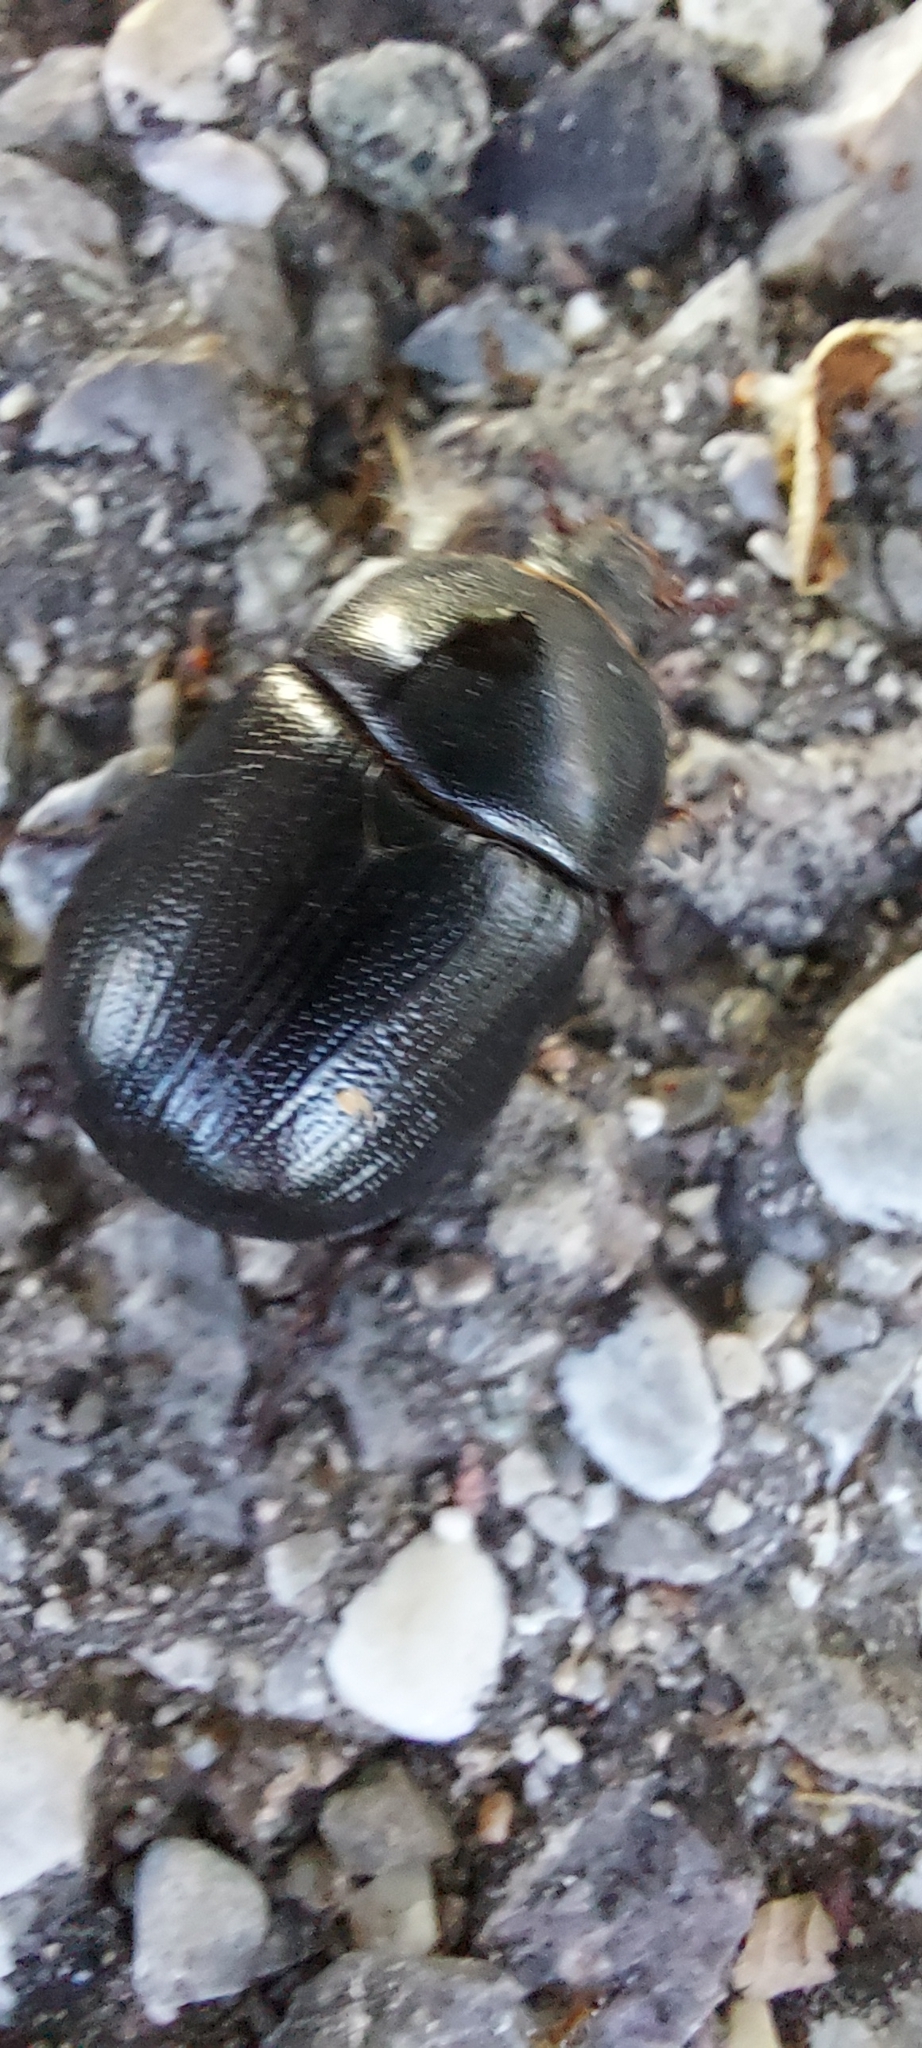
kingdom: Animalia
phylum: Arthropoda
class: Insecta
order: Coleoptera
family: Scarabaeidae
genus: Pentodon
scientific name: Pentodon bidens
